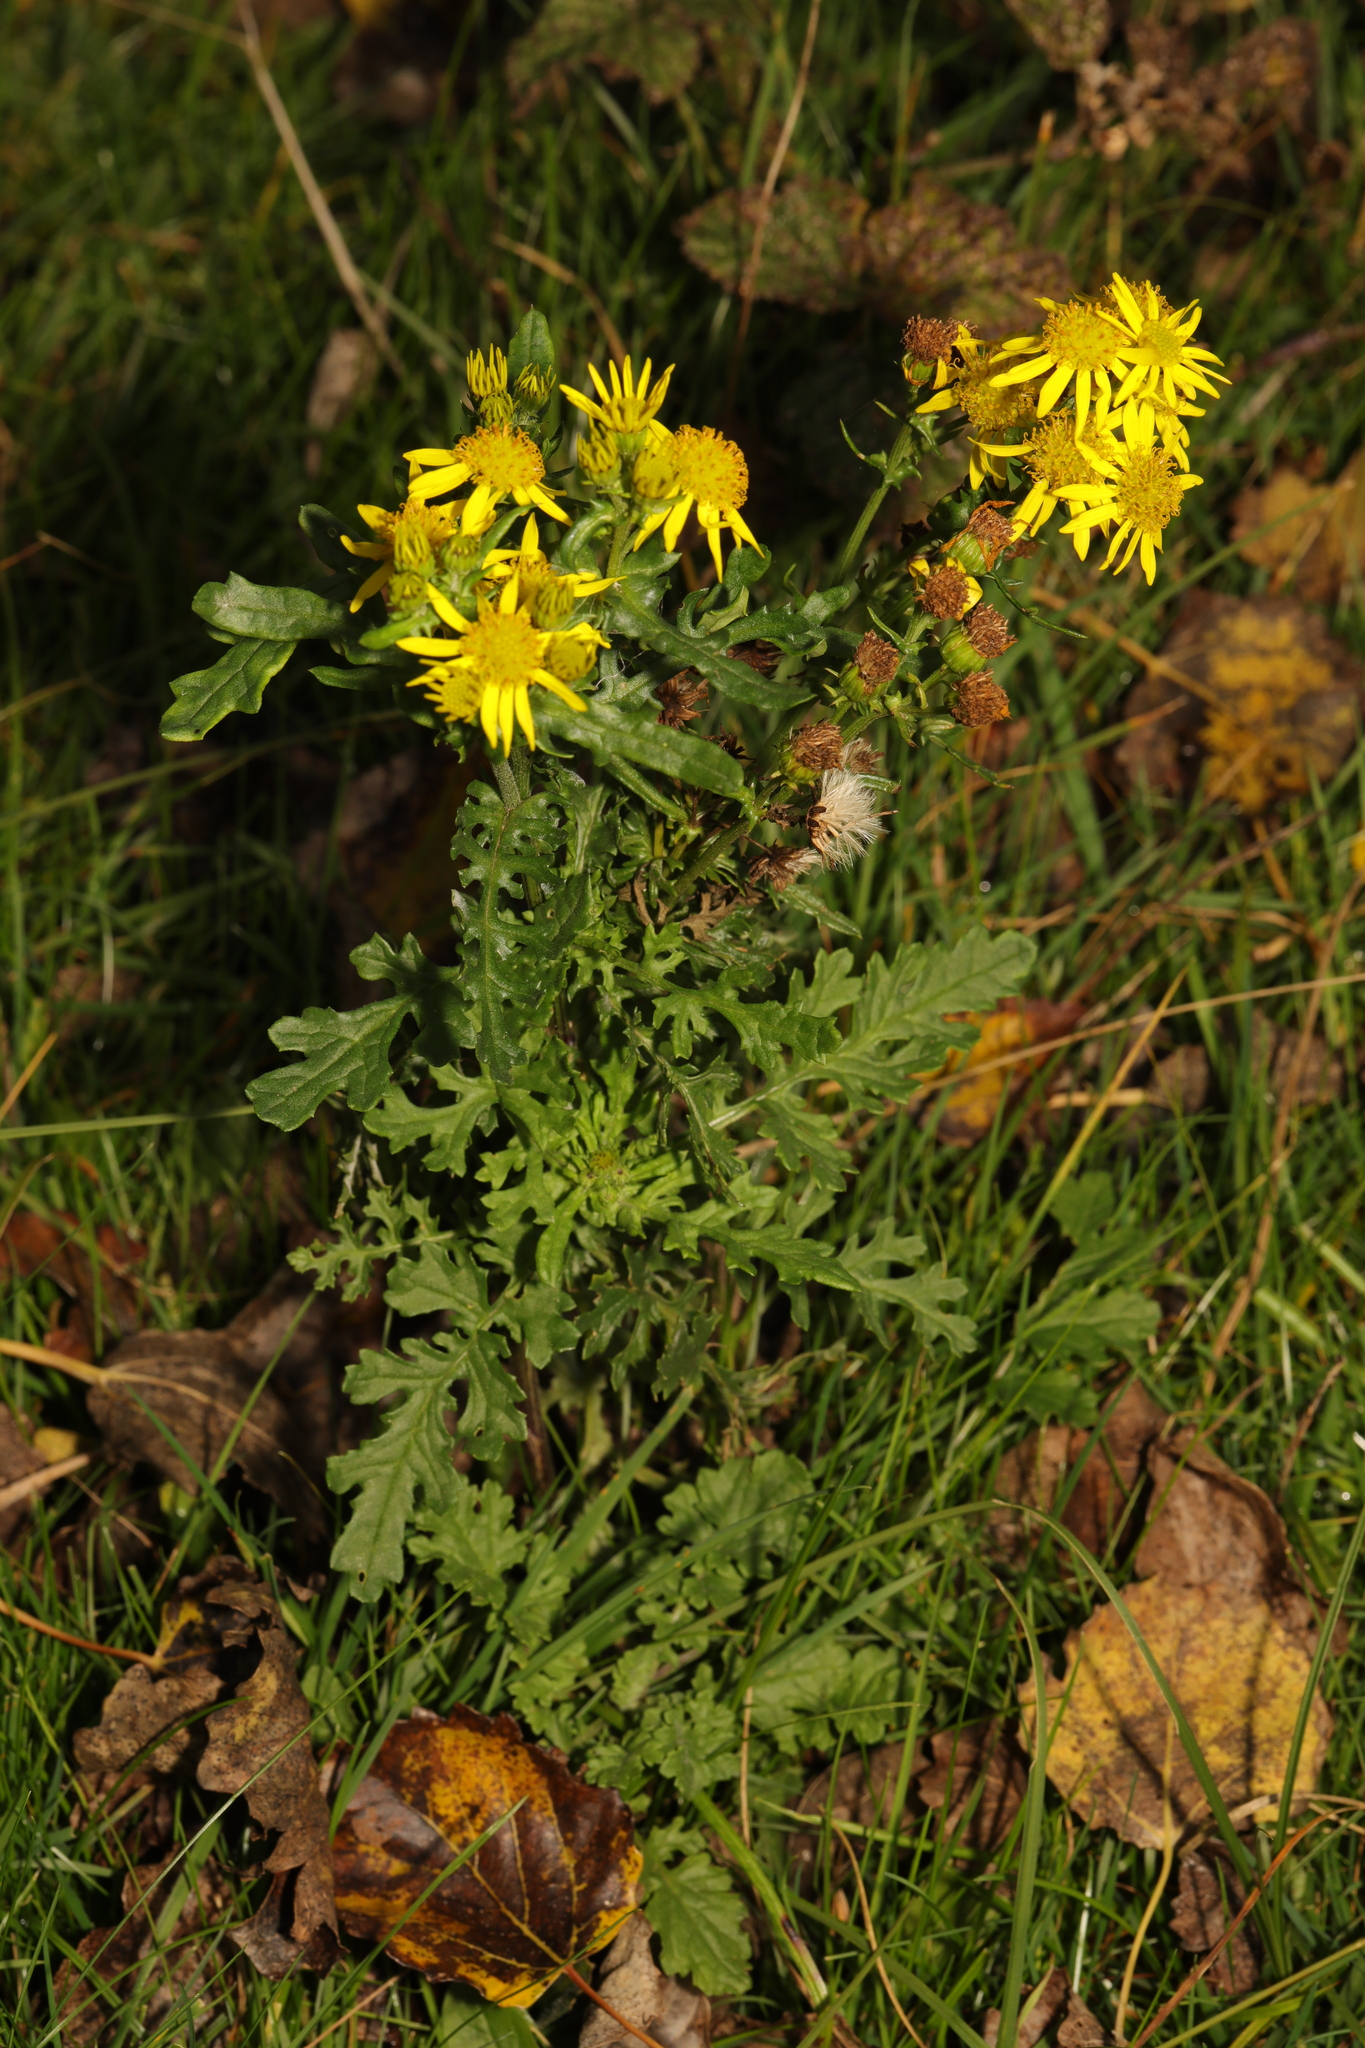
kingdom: Plantae
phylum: Tracheophyta
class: Magnoliopsida
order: Asterales
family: Asteraceae
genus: Jacobaea
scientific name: Jacobaea vulgaris
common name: Stinking willie
